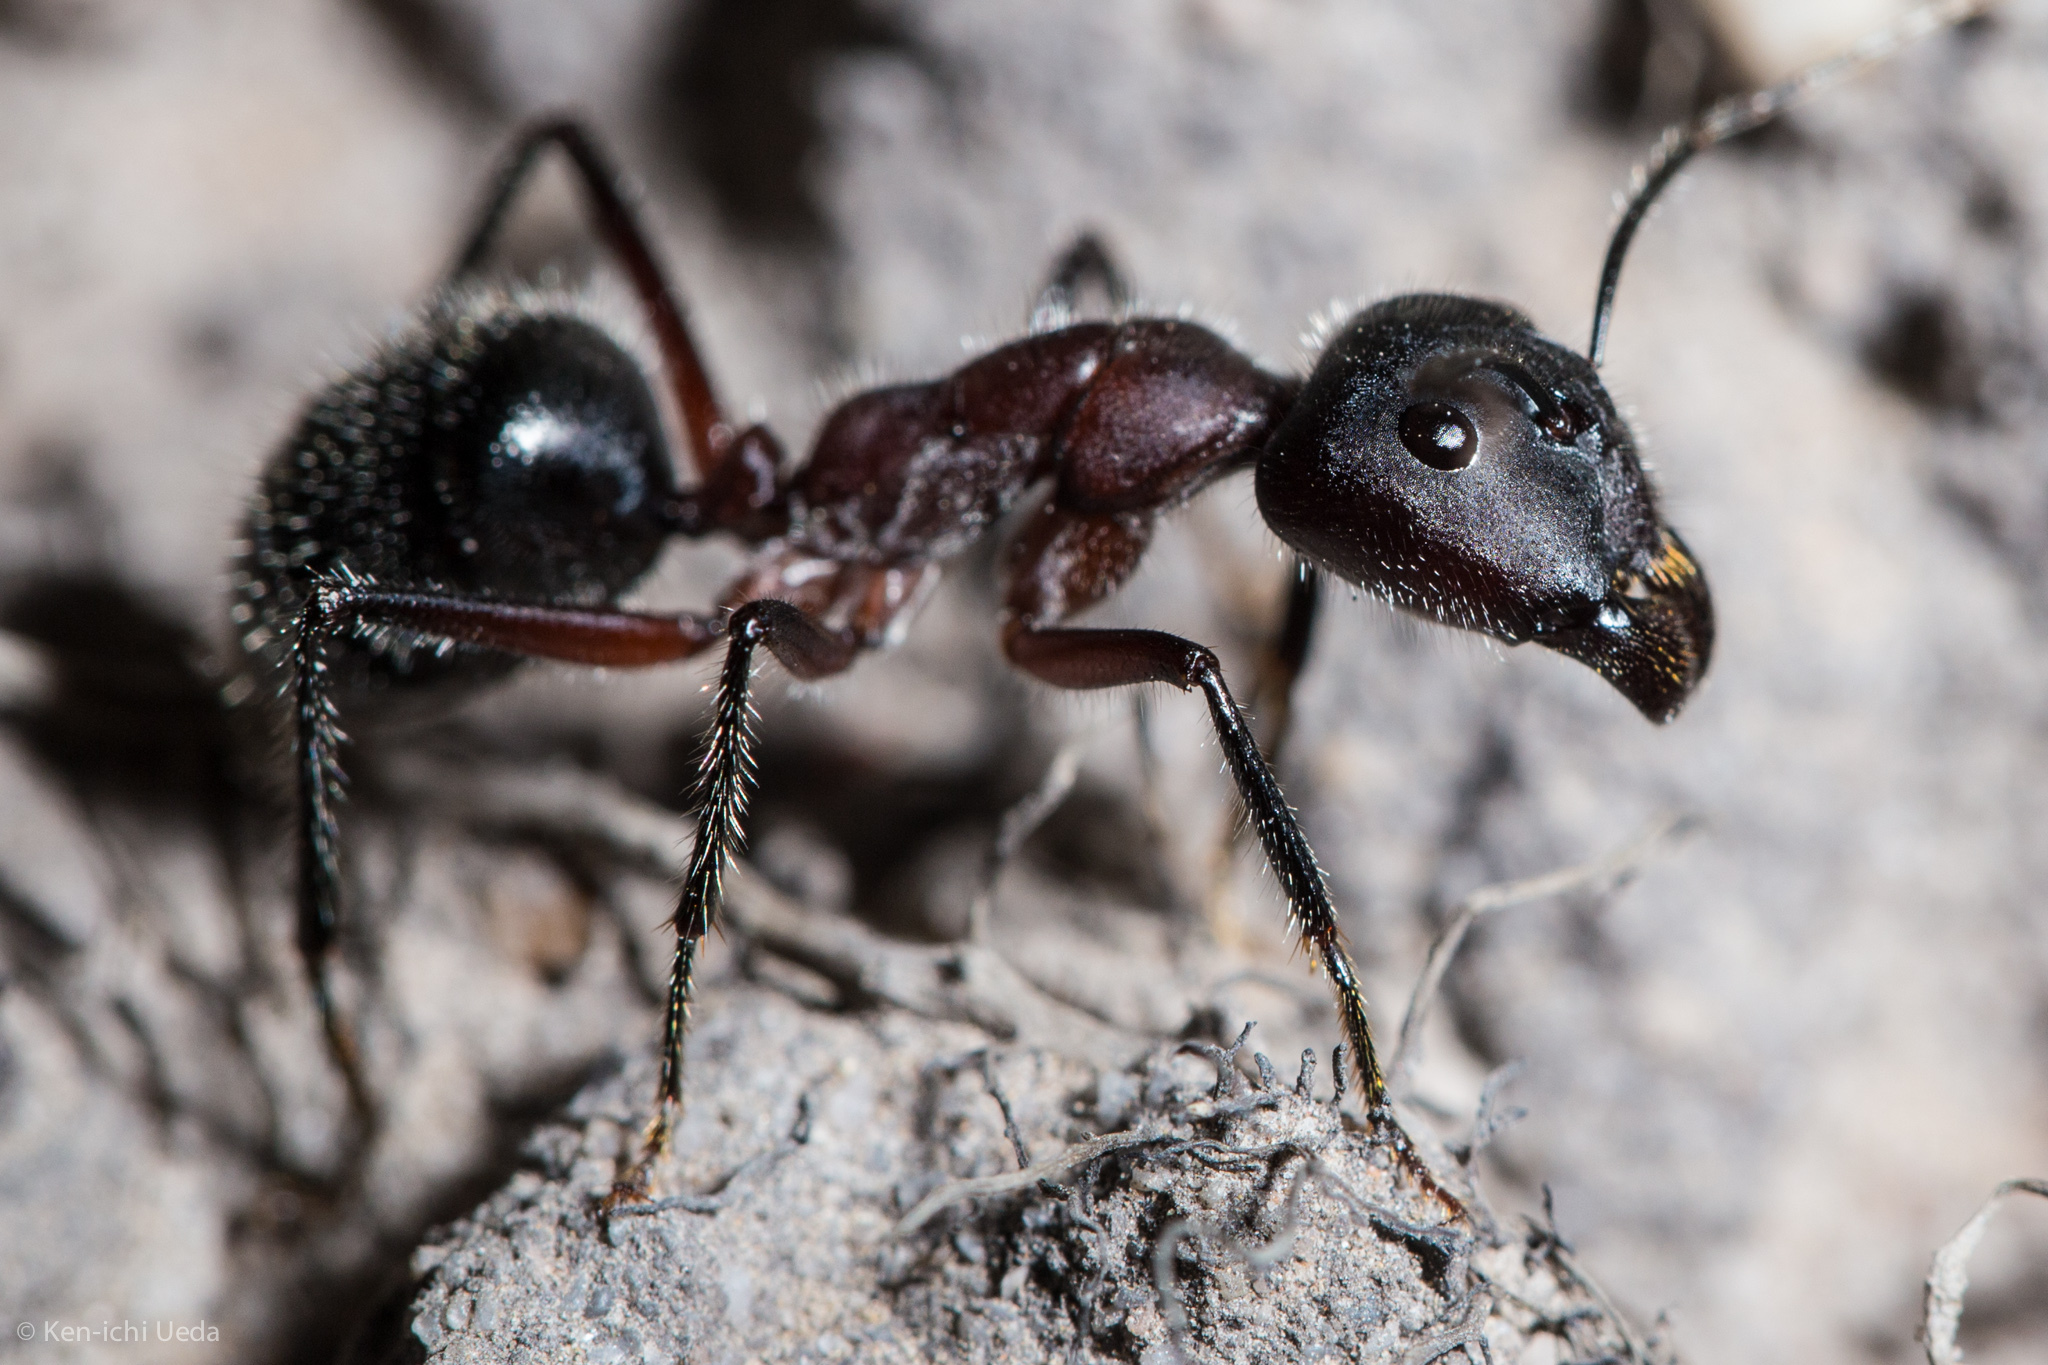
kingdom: Animalia
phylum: Arthropoda
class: Insecta
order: Hymenoptera
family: Formicidae
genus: Camponotus
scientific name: Camponotus intrepidus
